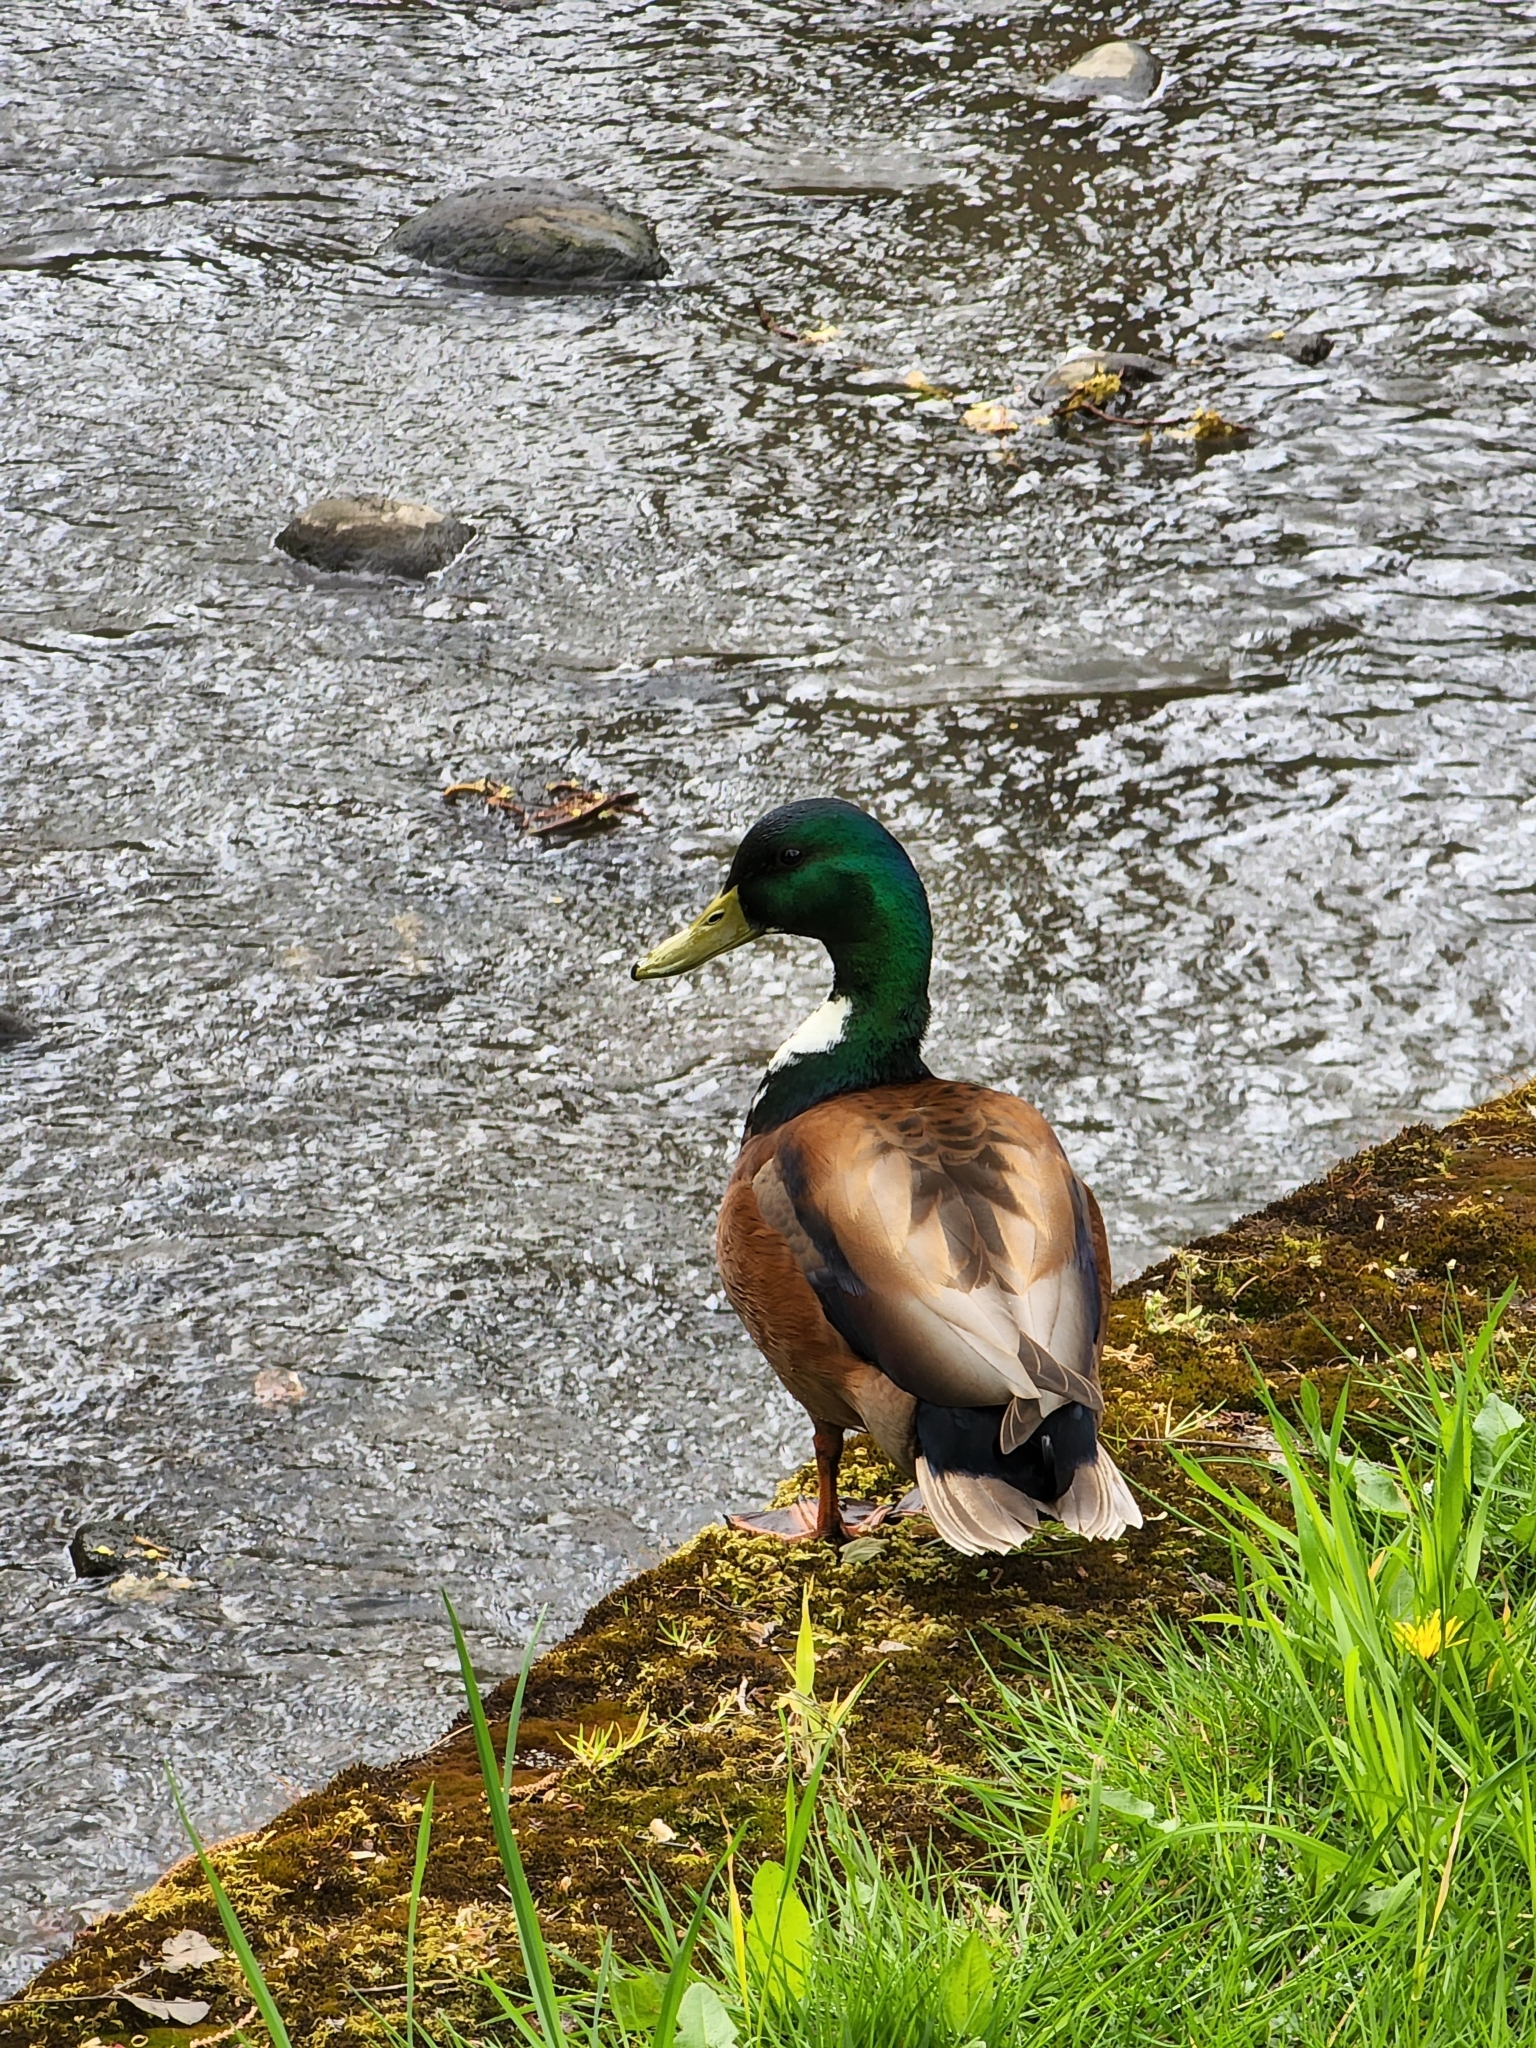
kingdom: Animalia
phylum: Chordata
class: Aves
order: Anseriformes
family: Anatidae
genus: Anas
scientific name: Anas platyrhynchos
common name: Mallard
